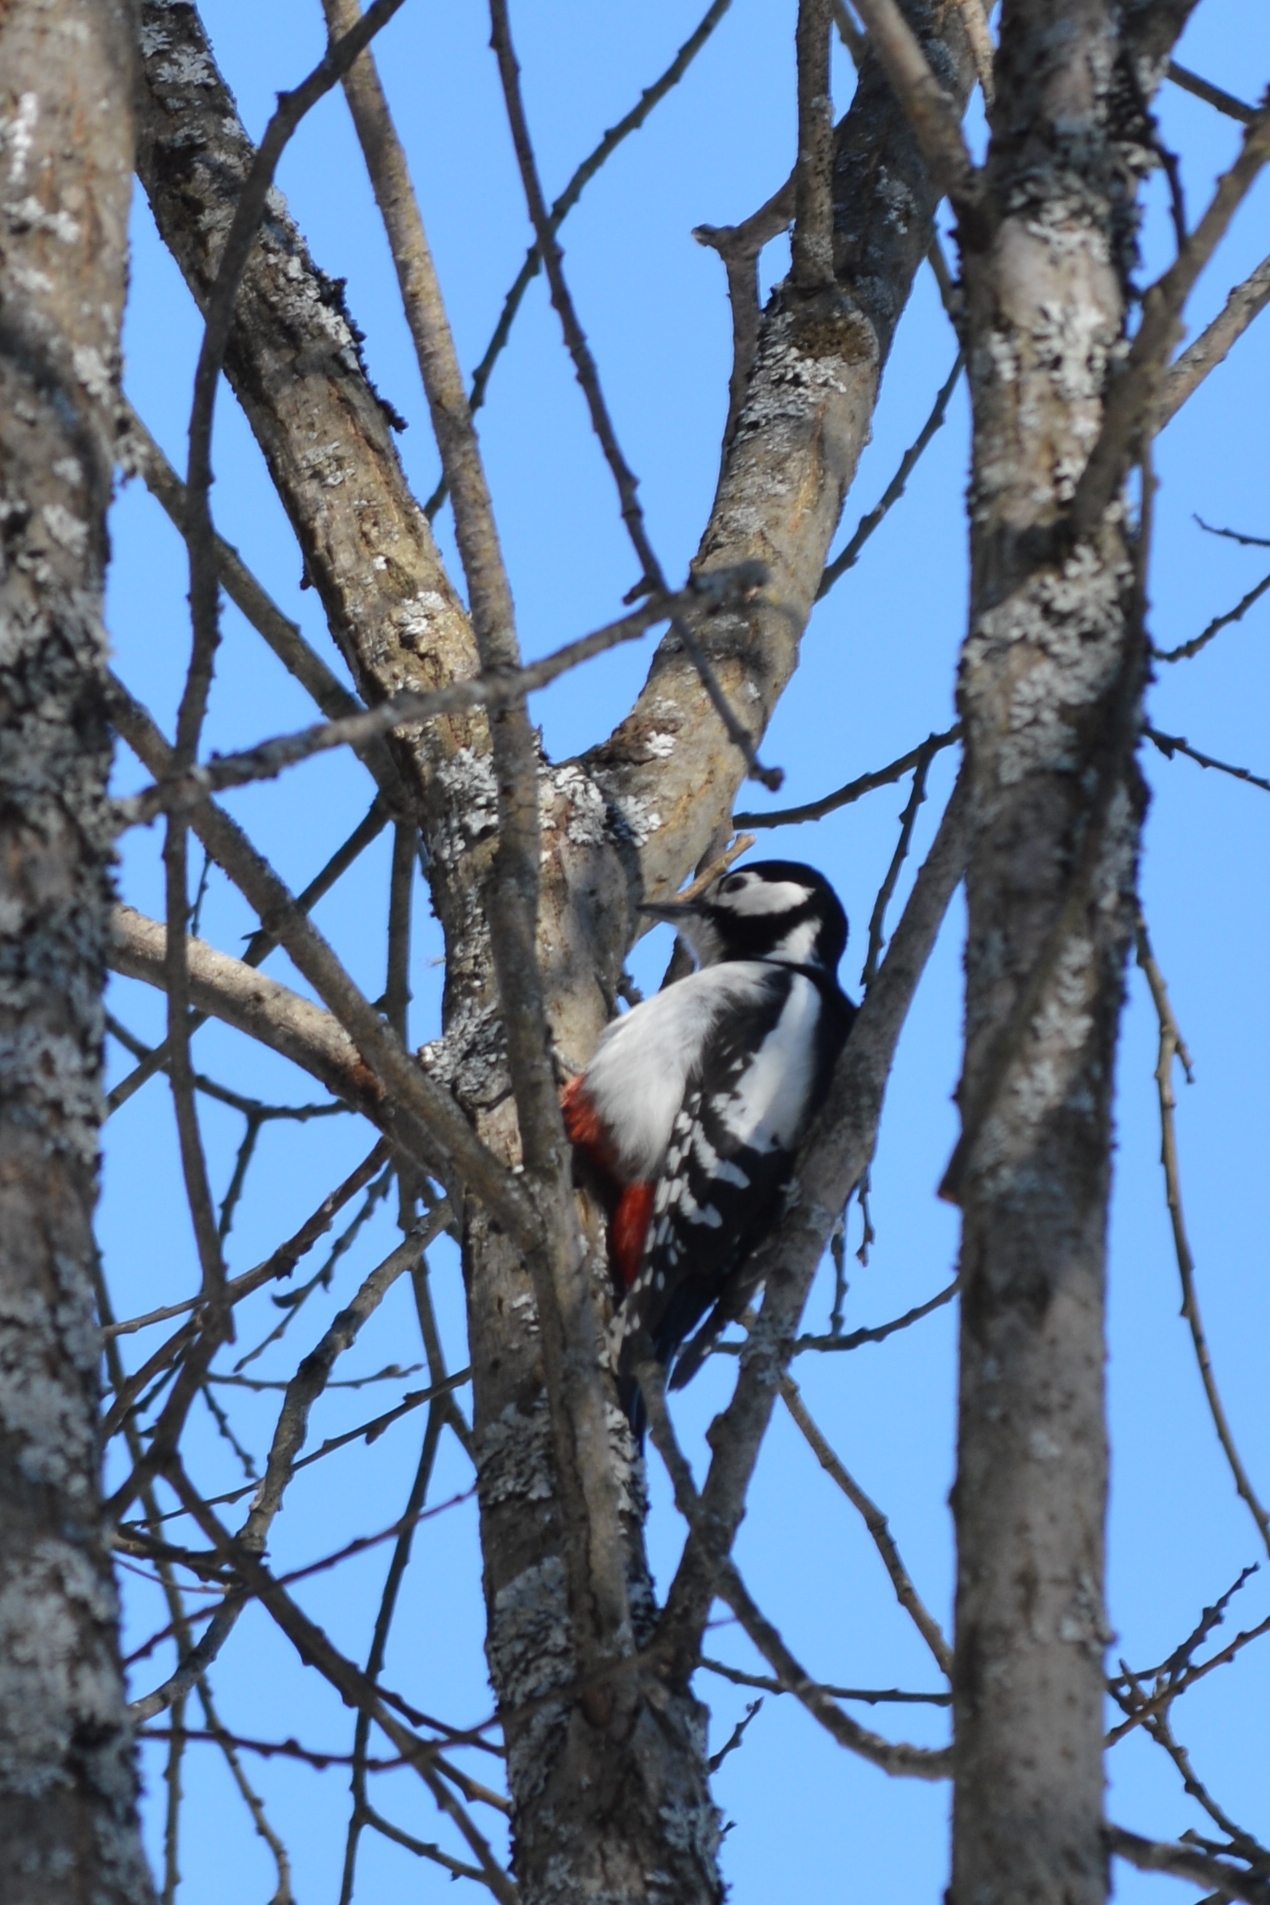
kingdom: Animalia
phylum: Chordata
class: Aves
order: Piciformes
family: Picidae
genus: Dendrocopos
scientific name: Dendrocopos major
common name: Great spotted woodpecker
